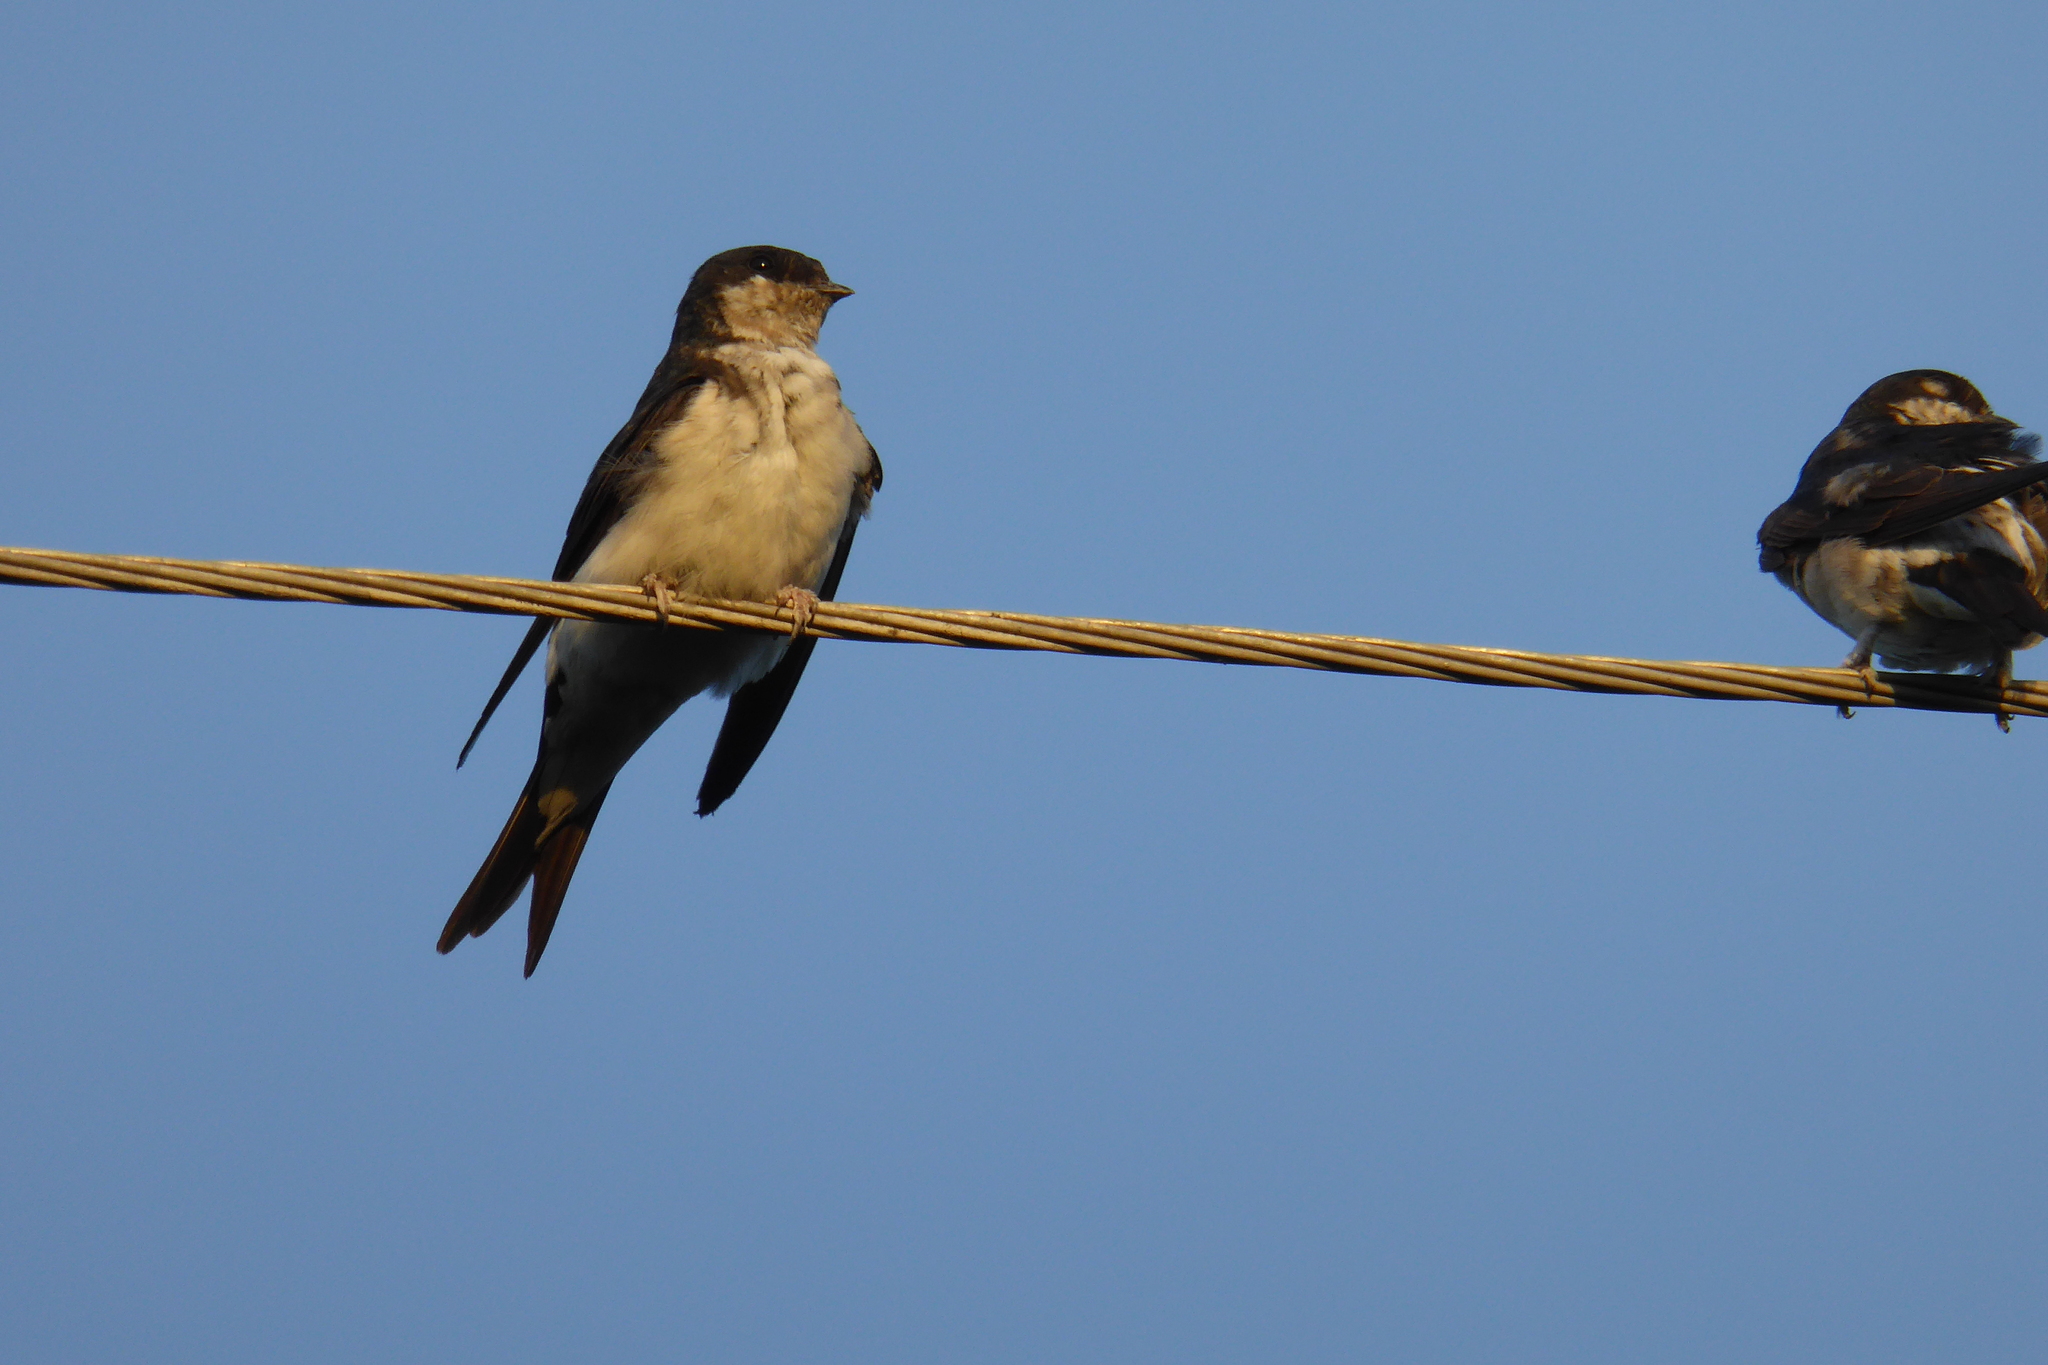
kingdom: Animalia
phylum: Chordata
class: Aves
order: Passeriformes
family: Hirundinidae
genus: Delichon
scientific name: Delichon urbicum
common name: Common house martin
